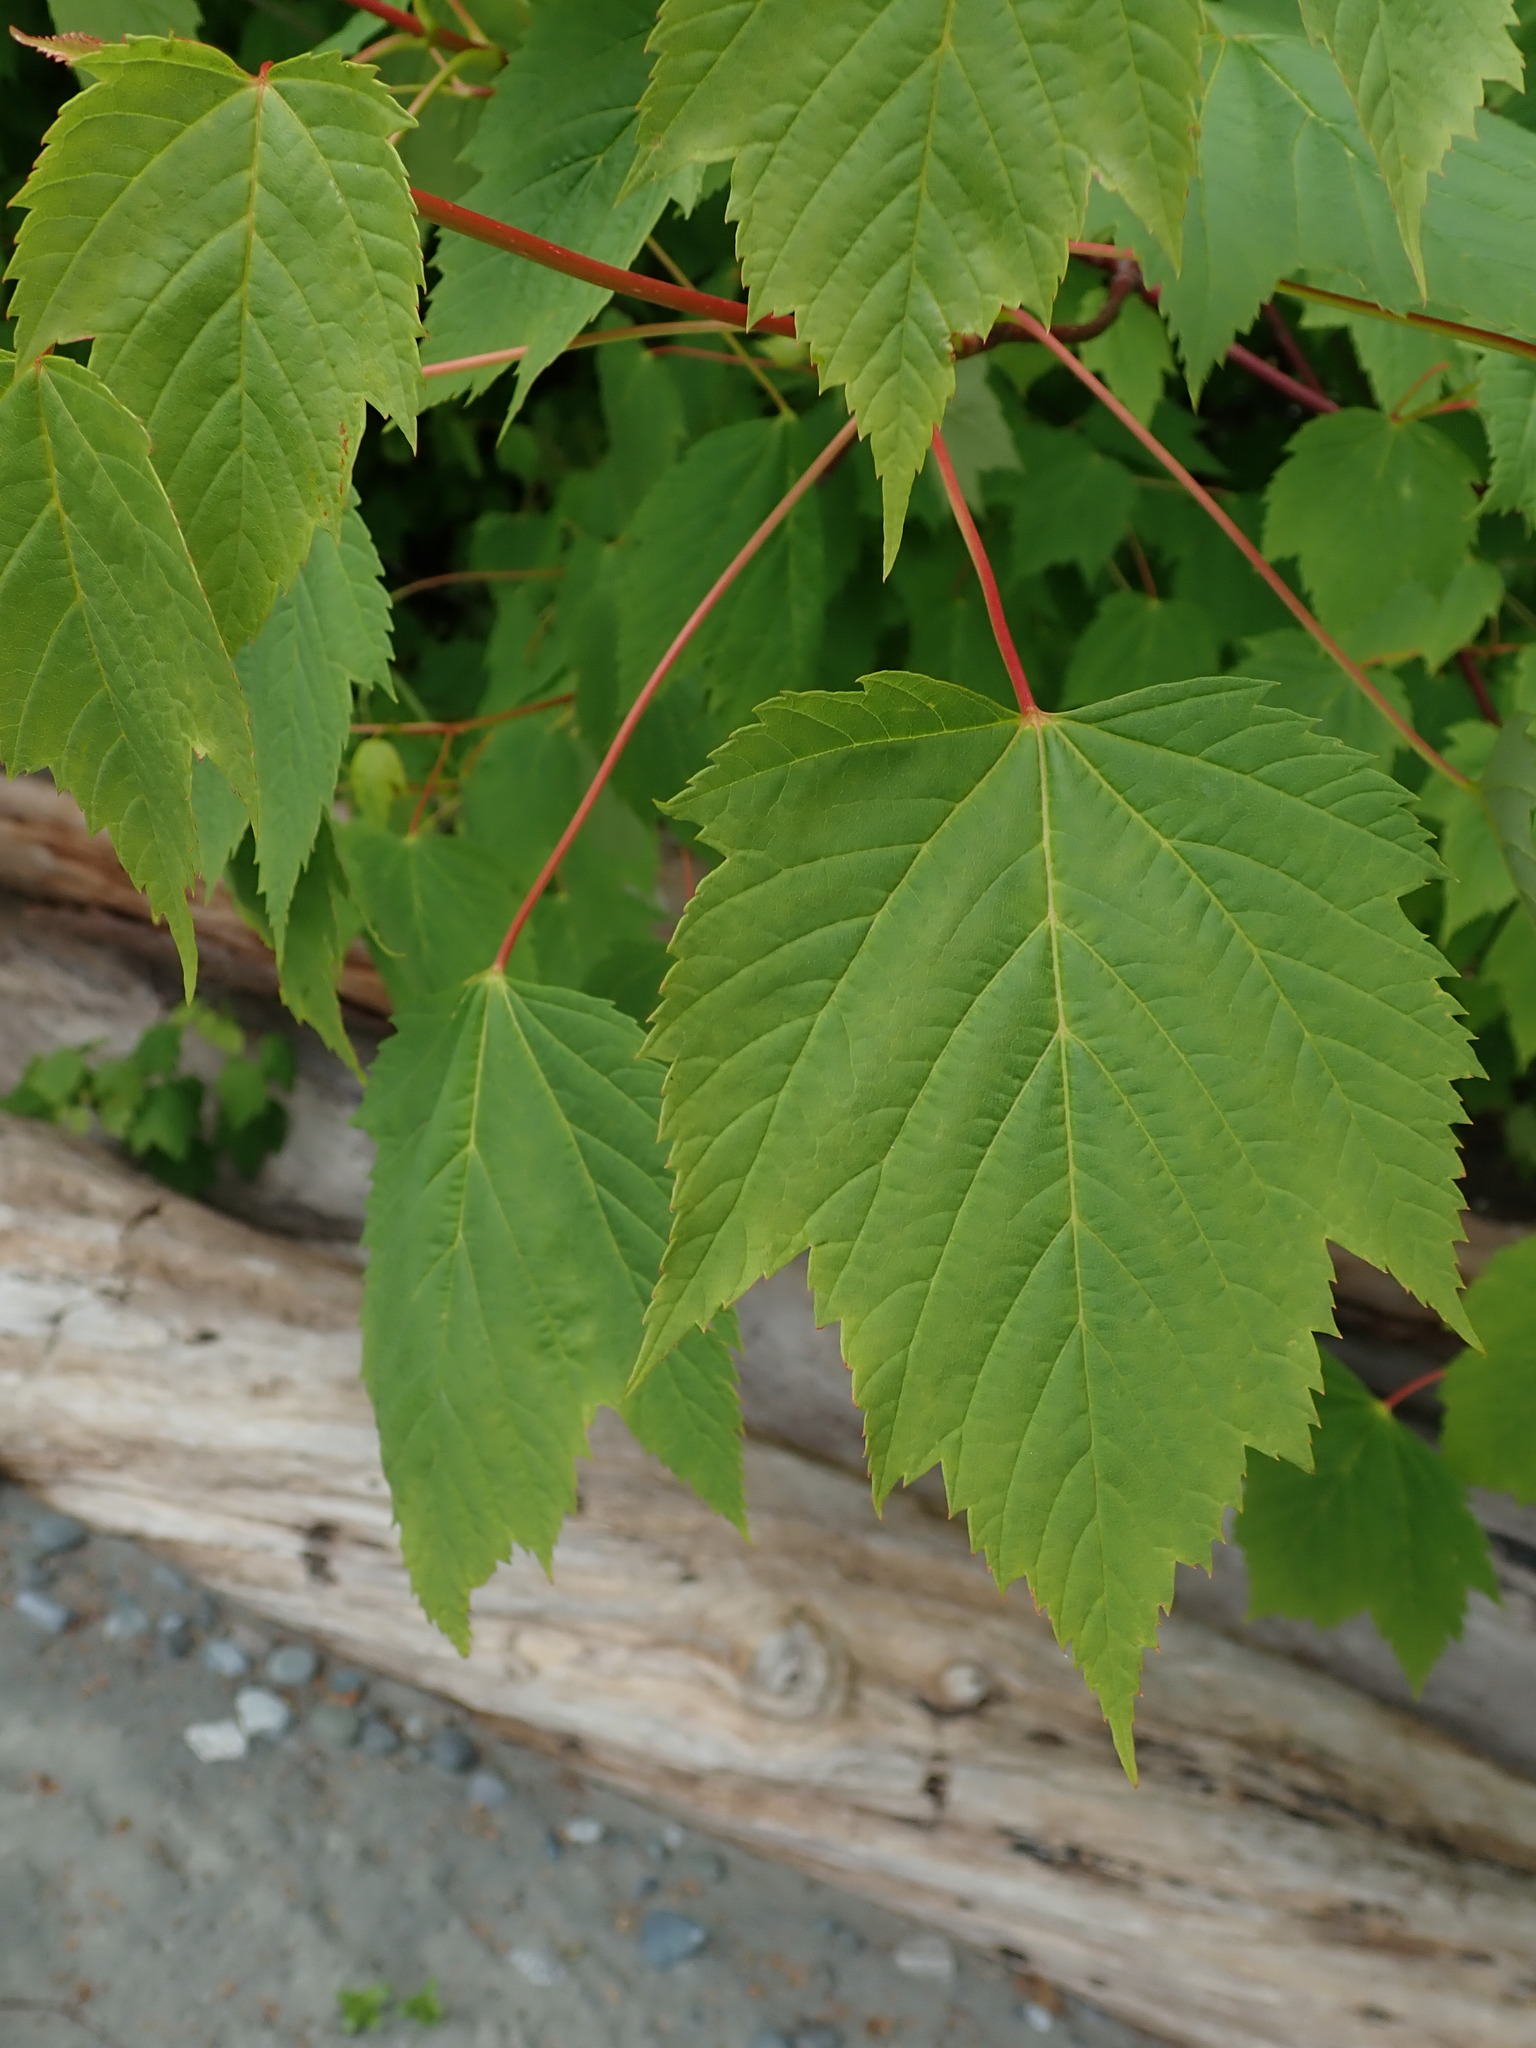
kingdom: Plantae
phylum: Tracheophyta
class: Magnoliopsida
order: Sapindales
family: Sapindaceae
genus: Acer
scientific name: Acer glabrum
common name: Rocky mountain maple
